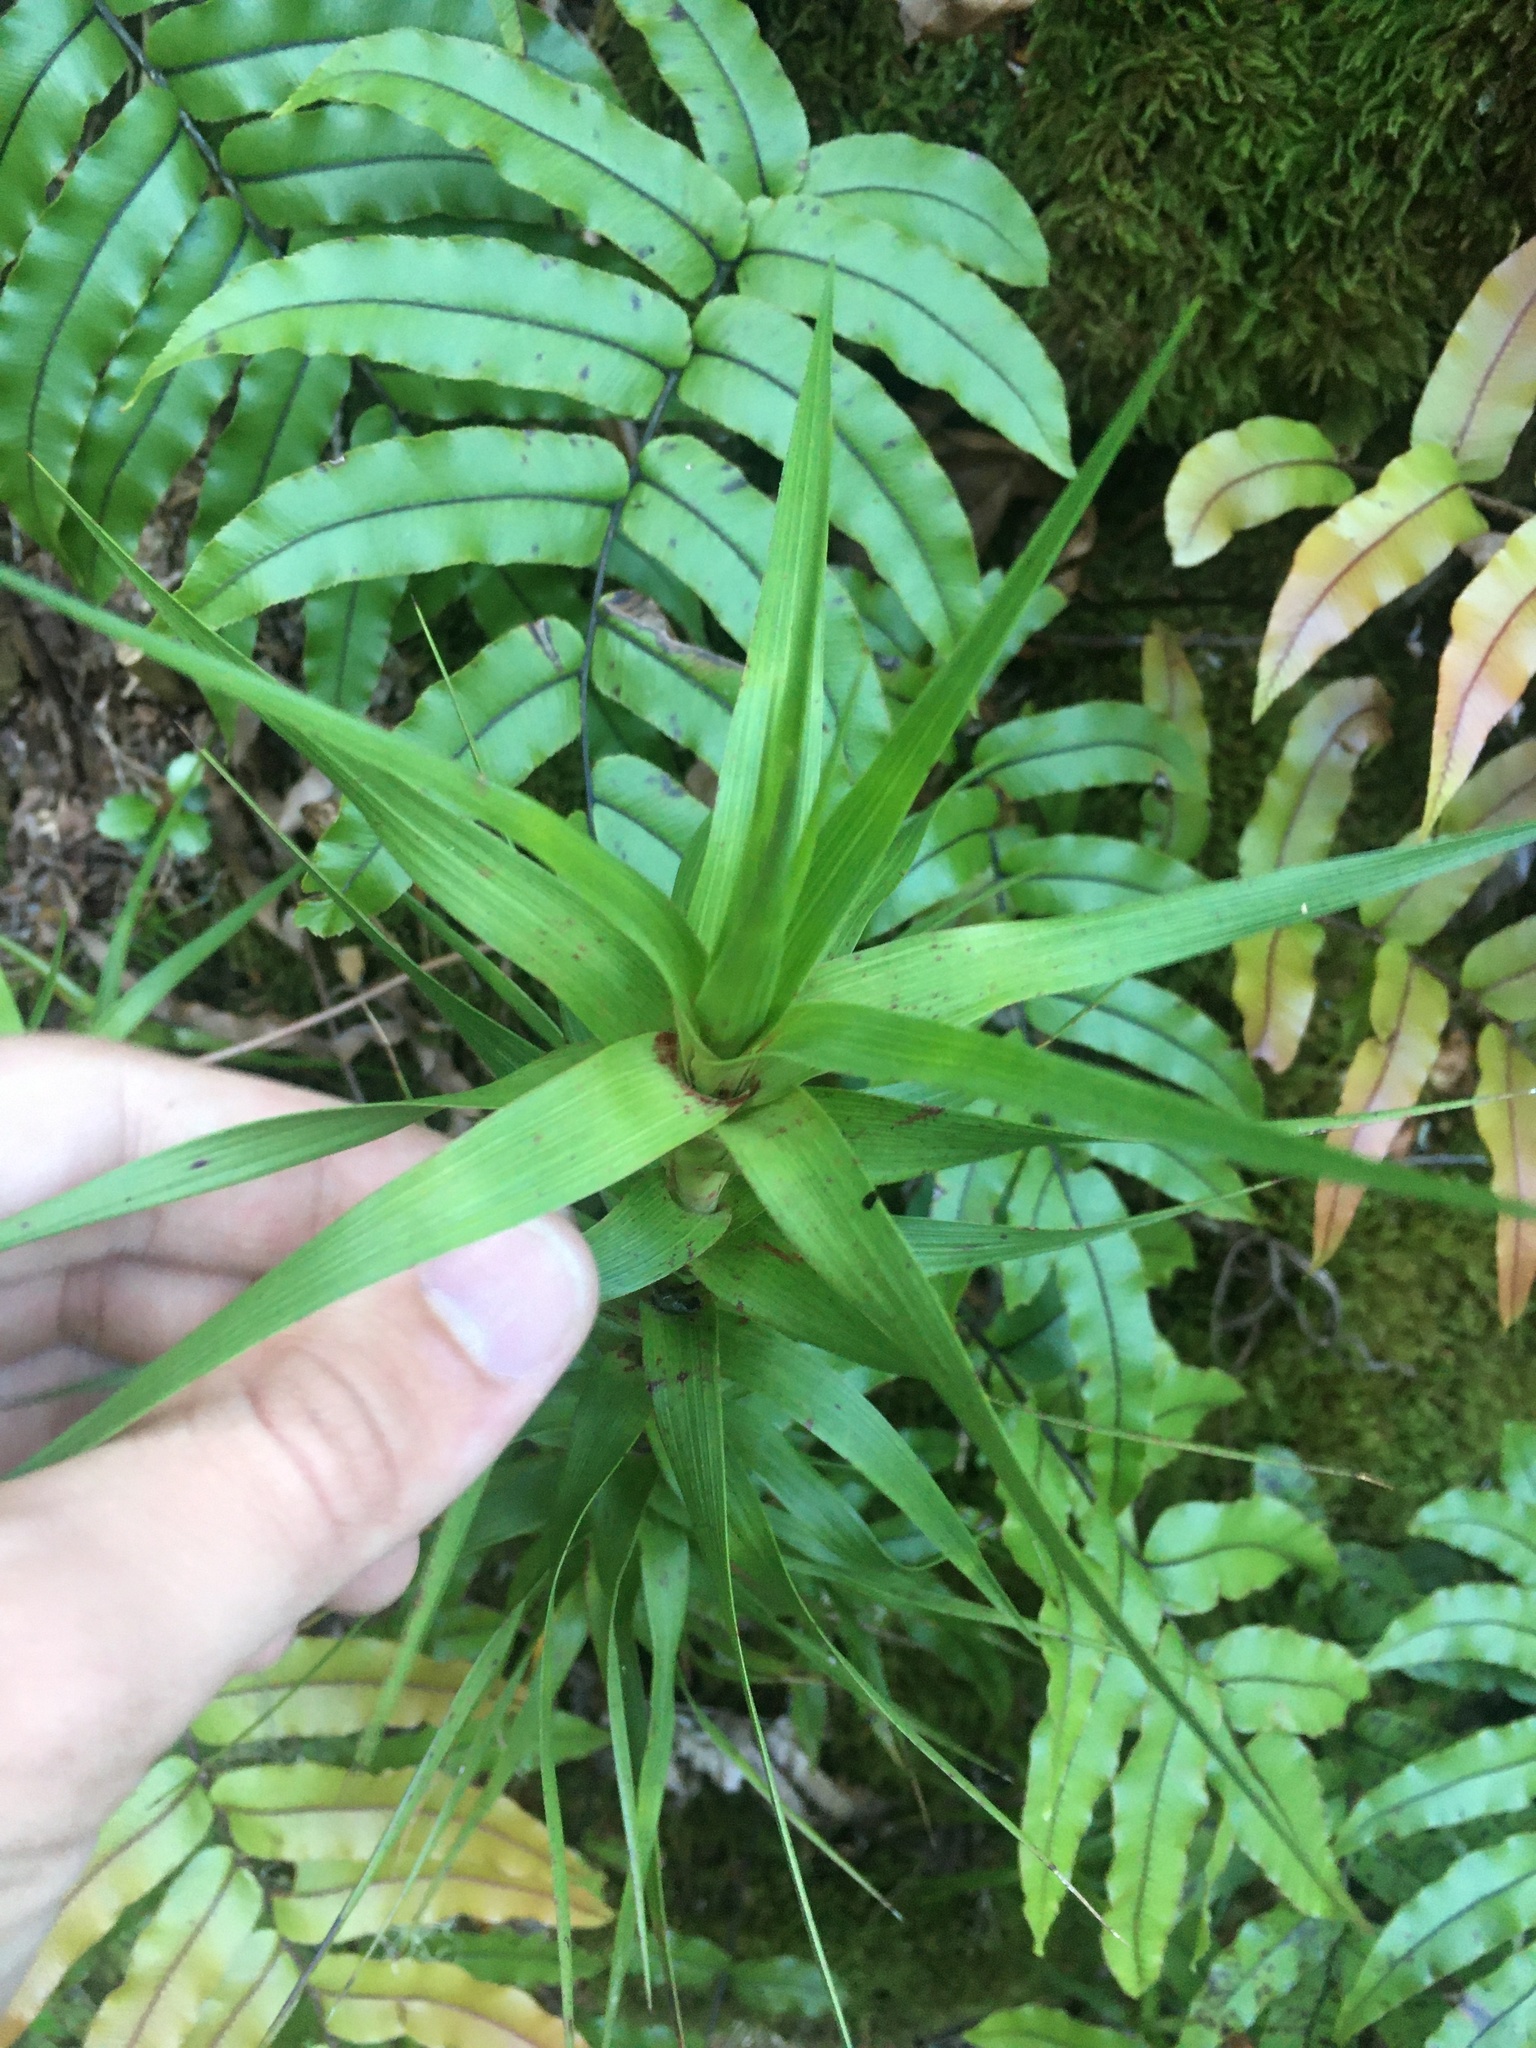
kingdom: Plantae
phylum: Tracheophyta
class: Magnoliopsida
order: Ericales
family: Ericaceae
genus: Dracophyllum
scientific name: Dracophyllum longifolium
